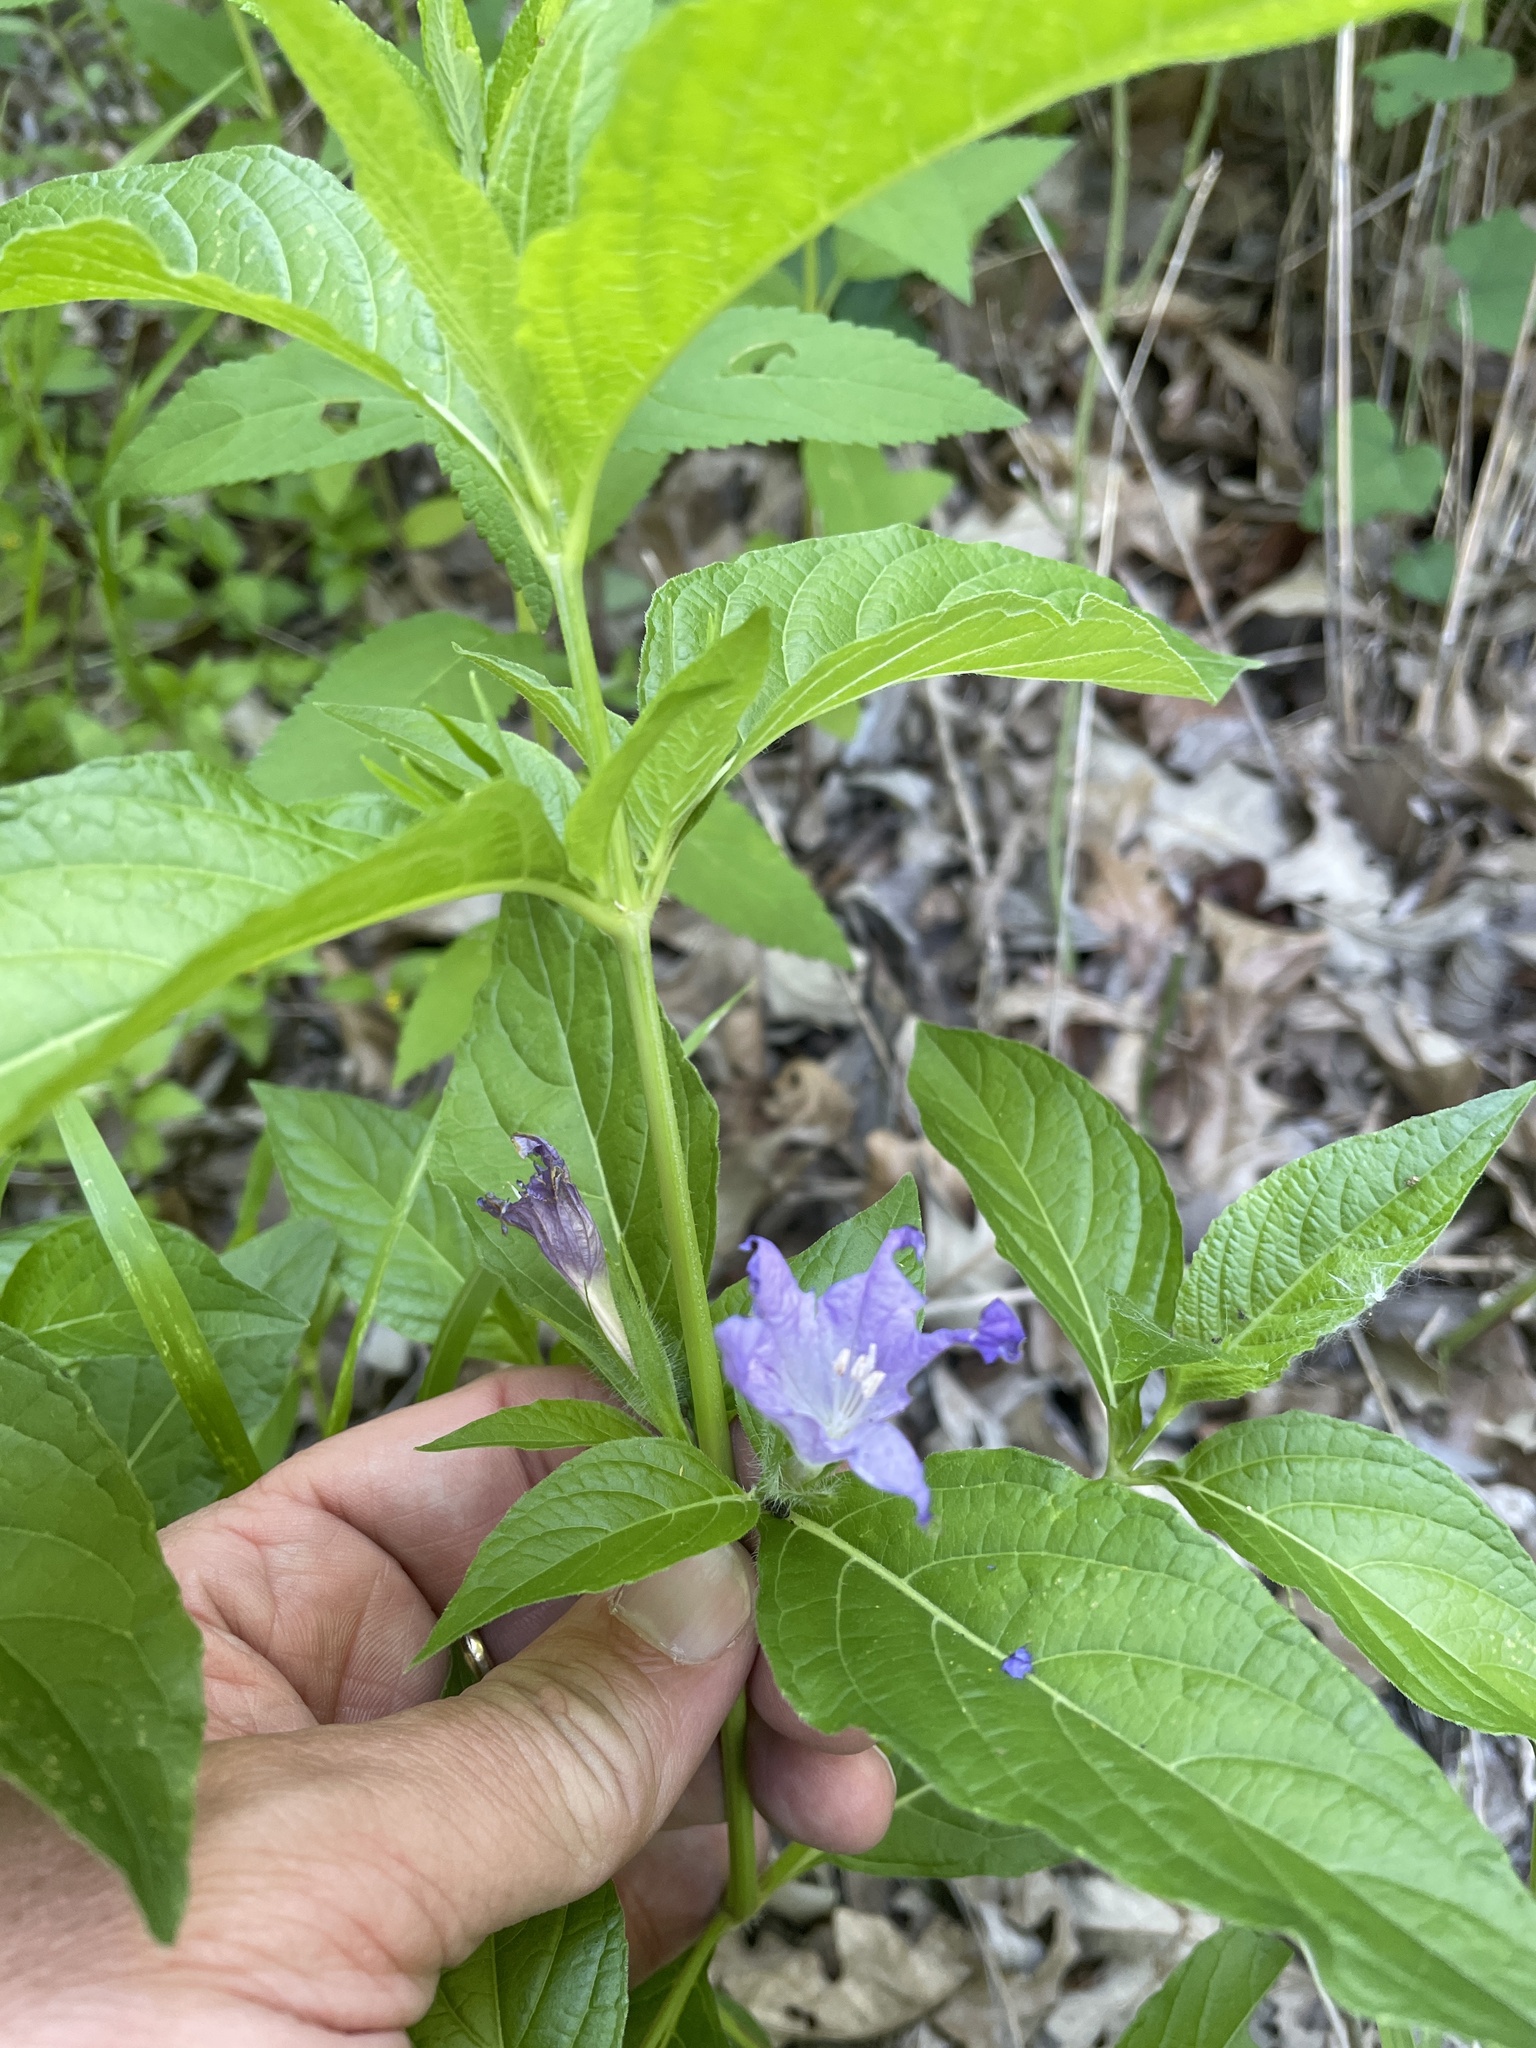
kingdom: Plantae
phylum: Tracheophyta
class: Magnoliopsida
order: Lamiales
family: Acanthaceae
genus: Ruellia
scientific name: Ruellia strepens
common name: Limestone wild petunia
